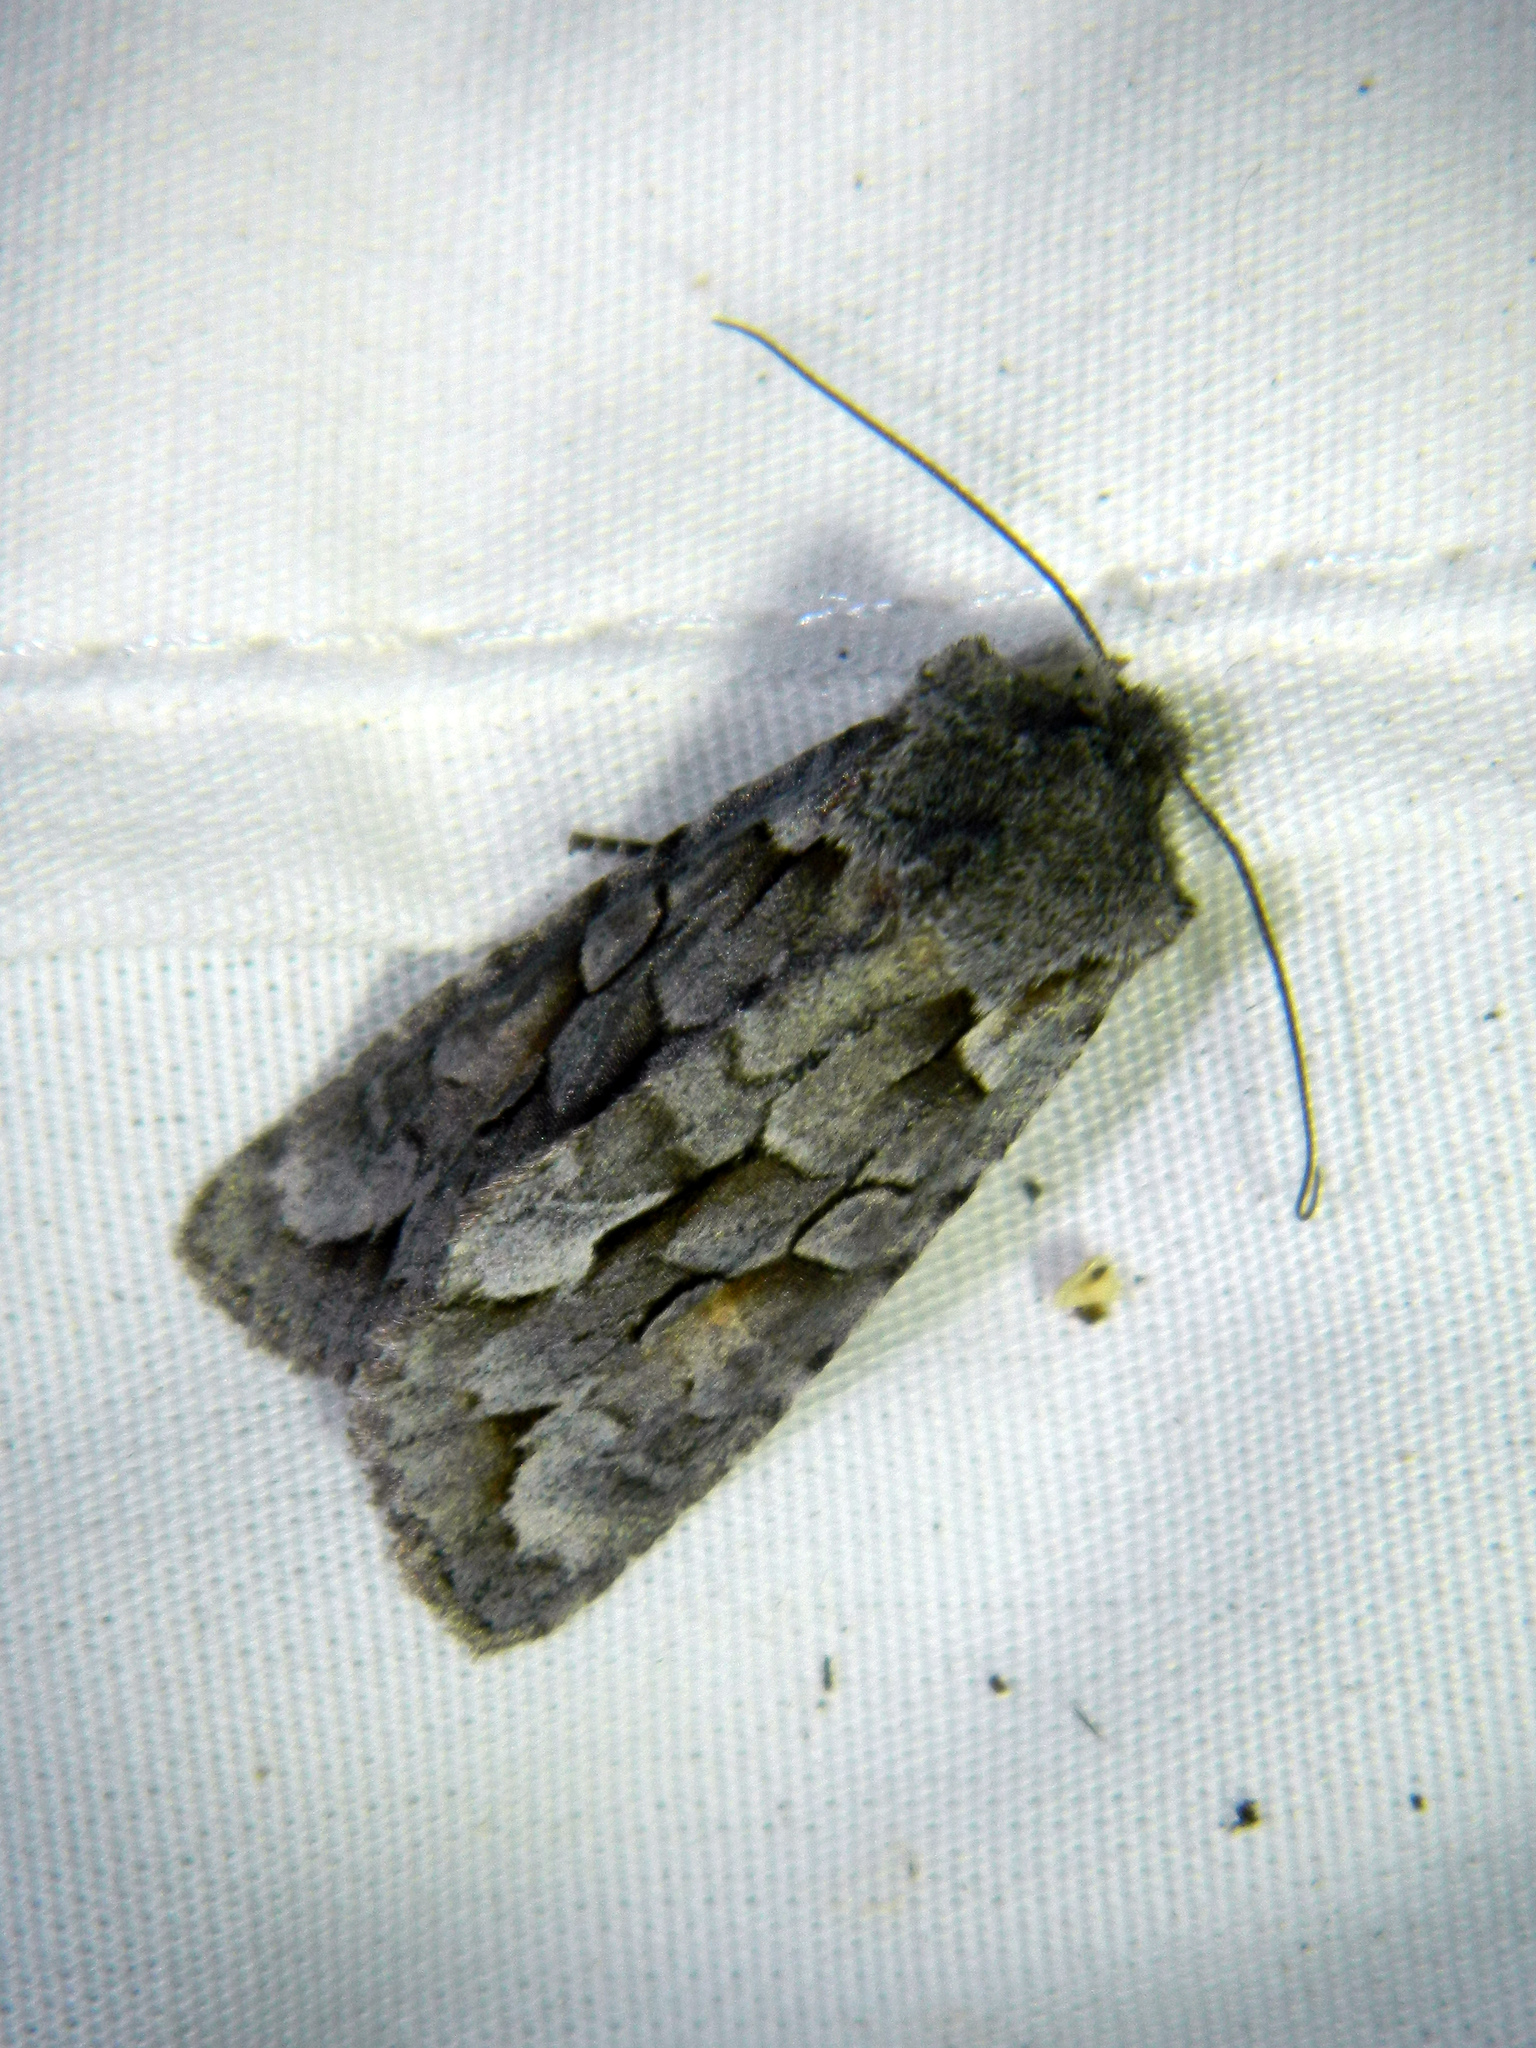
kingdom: Animalia
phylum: Arthropoda
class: Insecta
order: Lepidoptera
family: Noctuidae
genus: Lithophane
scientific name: Lithophane thaxteri
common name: Nonconformist
